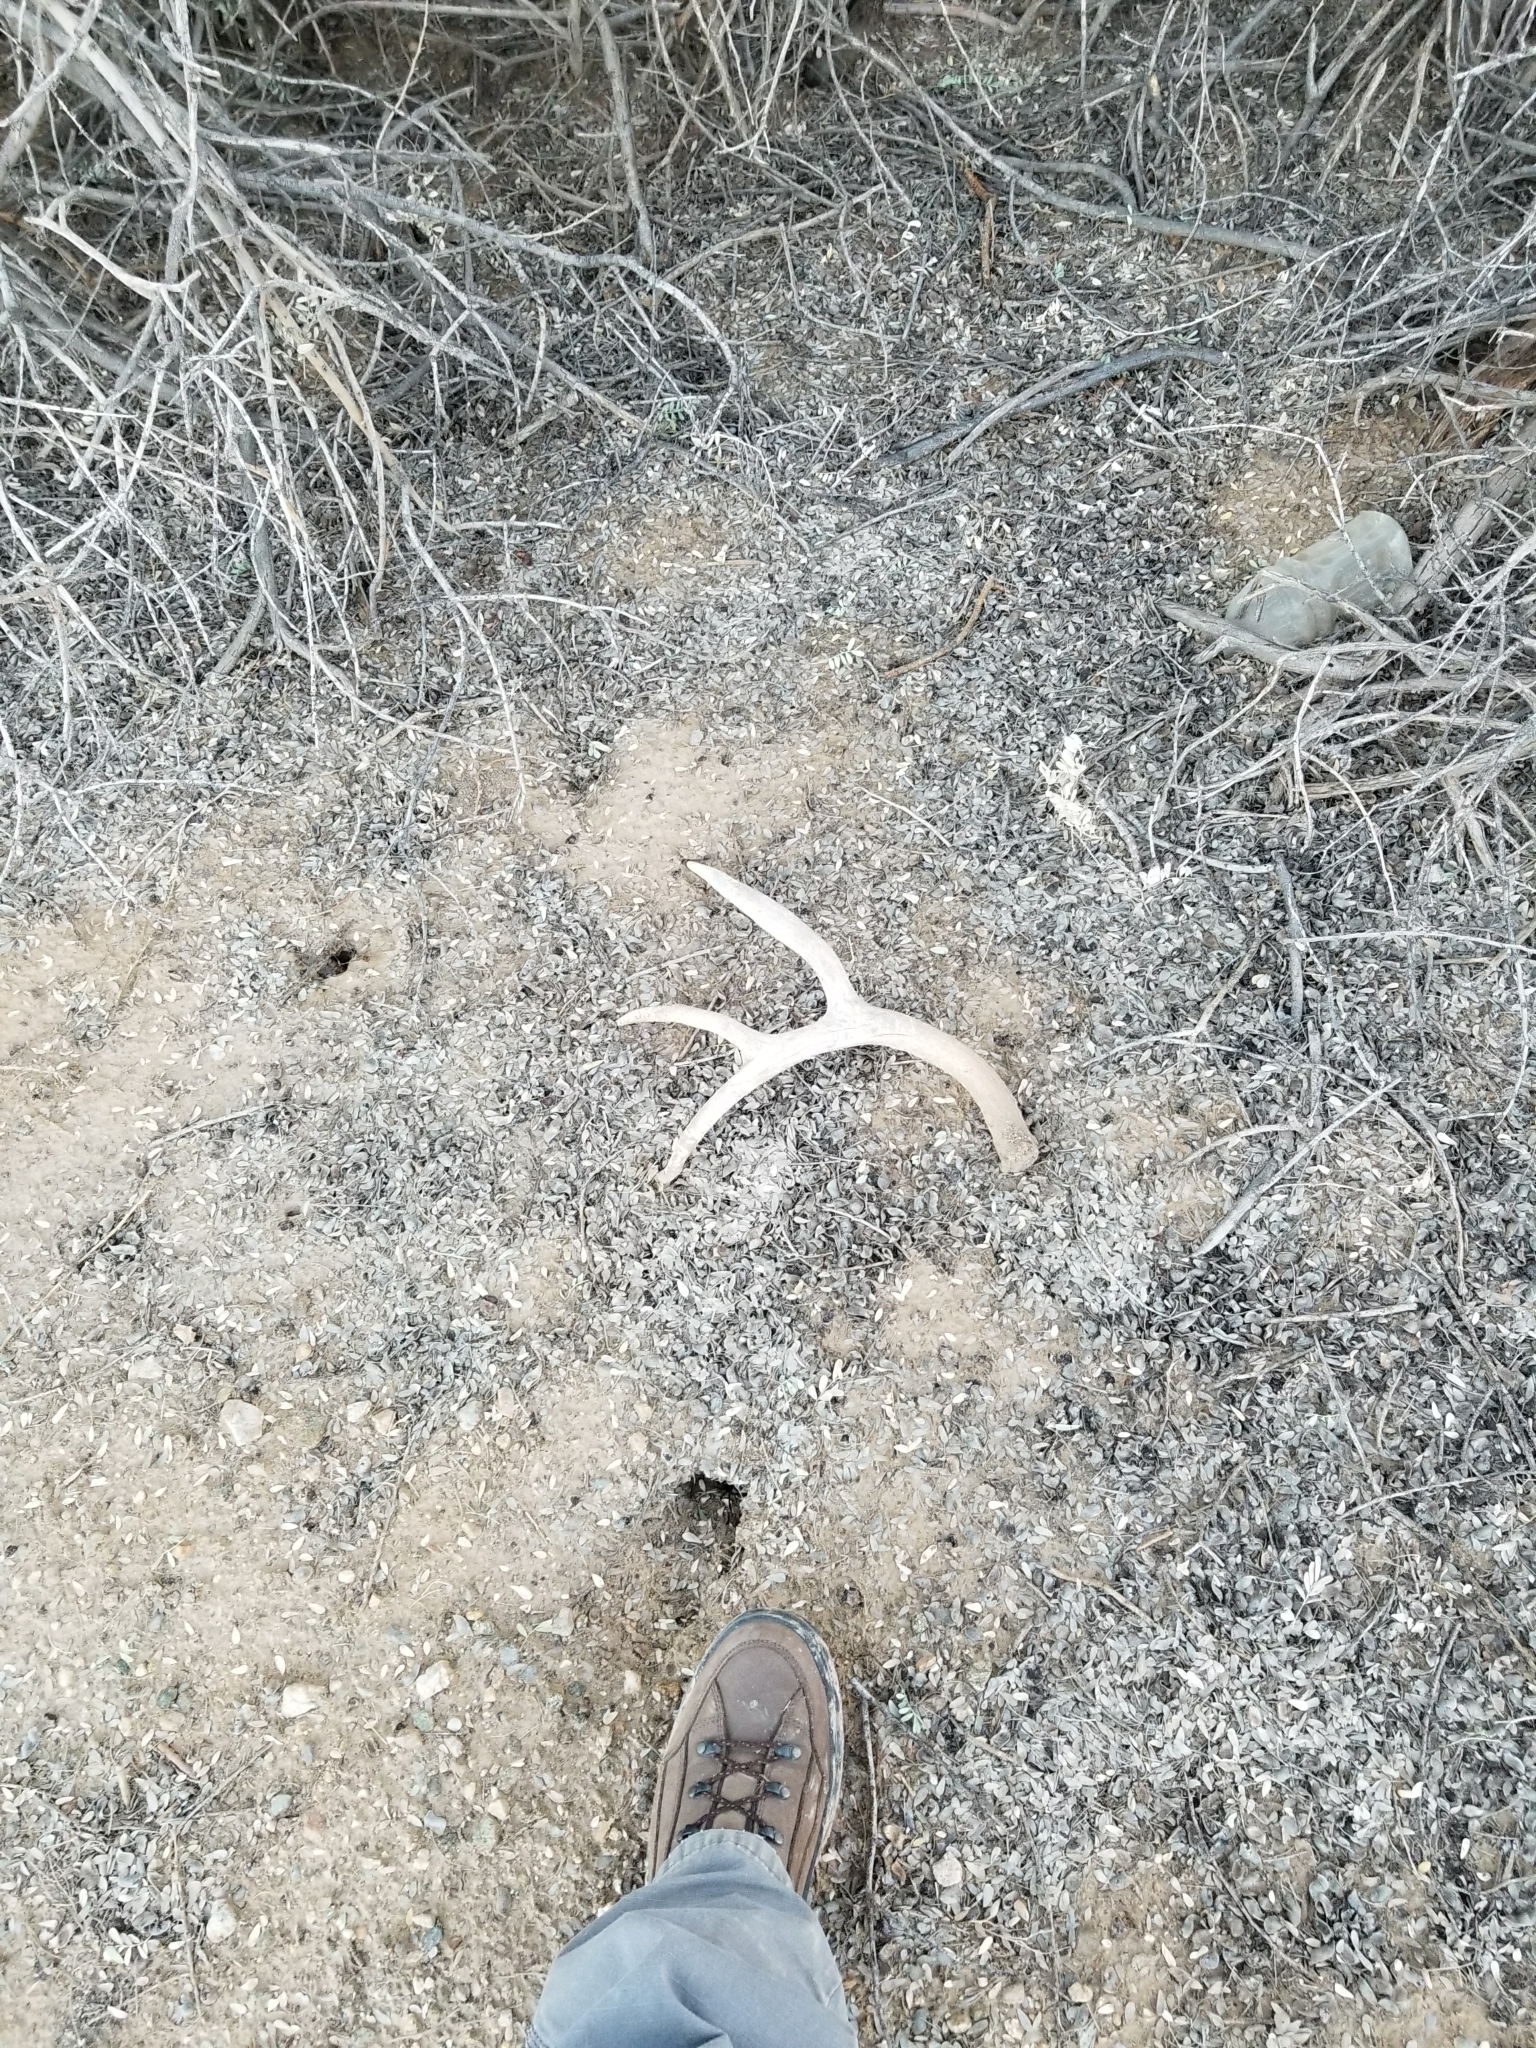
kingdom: Animalia
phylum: Chordata
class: Mammalia
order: Artiodactyla
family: Cervidae
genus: Odocoileus
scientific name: Odocoileus hemionus
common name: Mule deer
